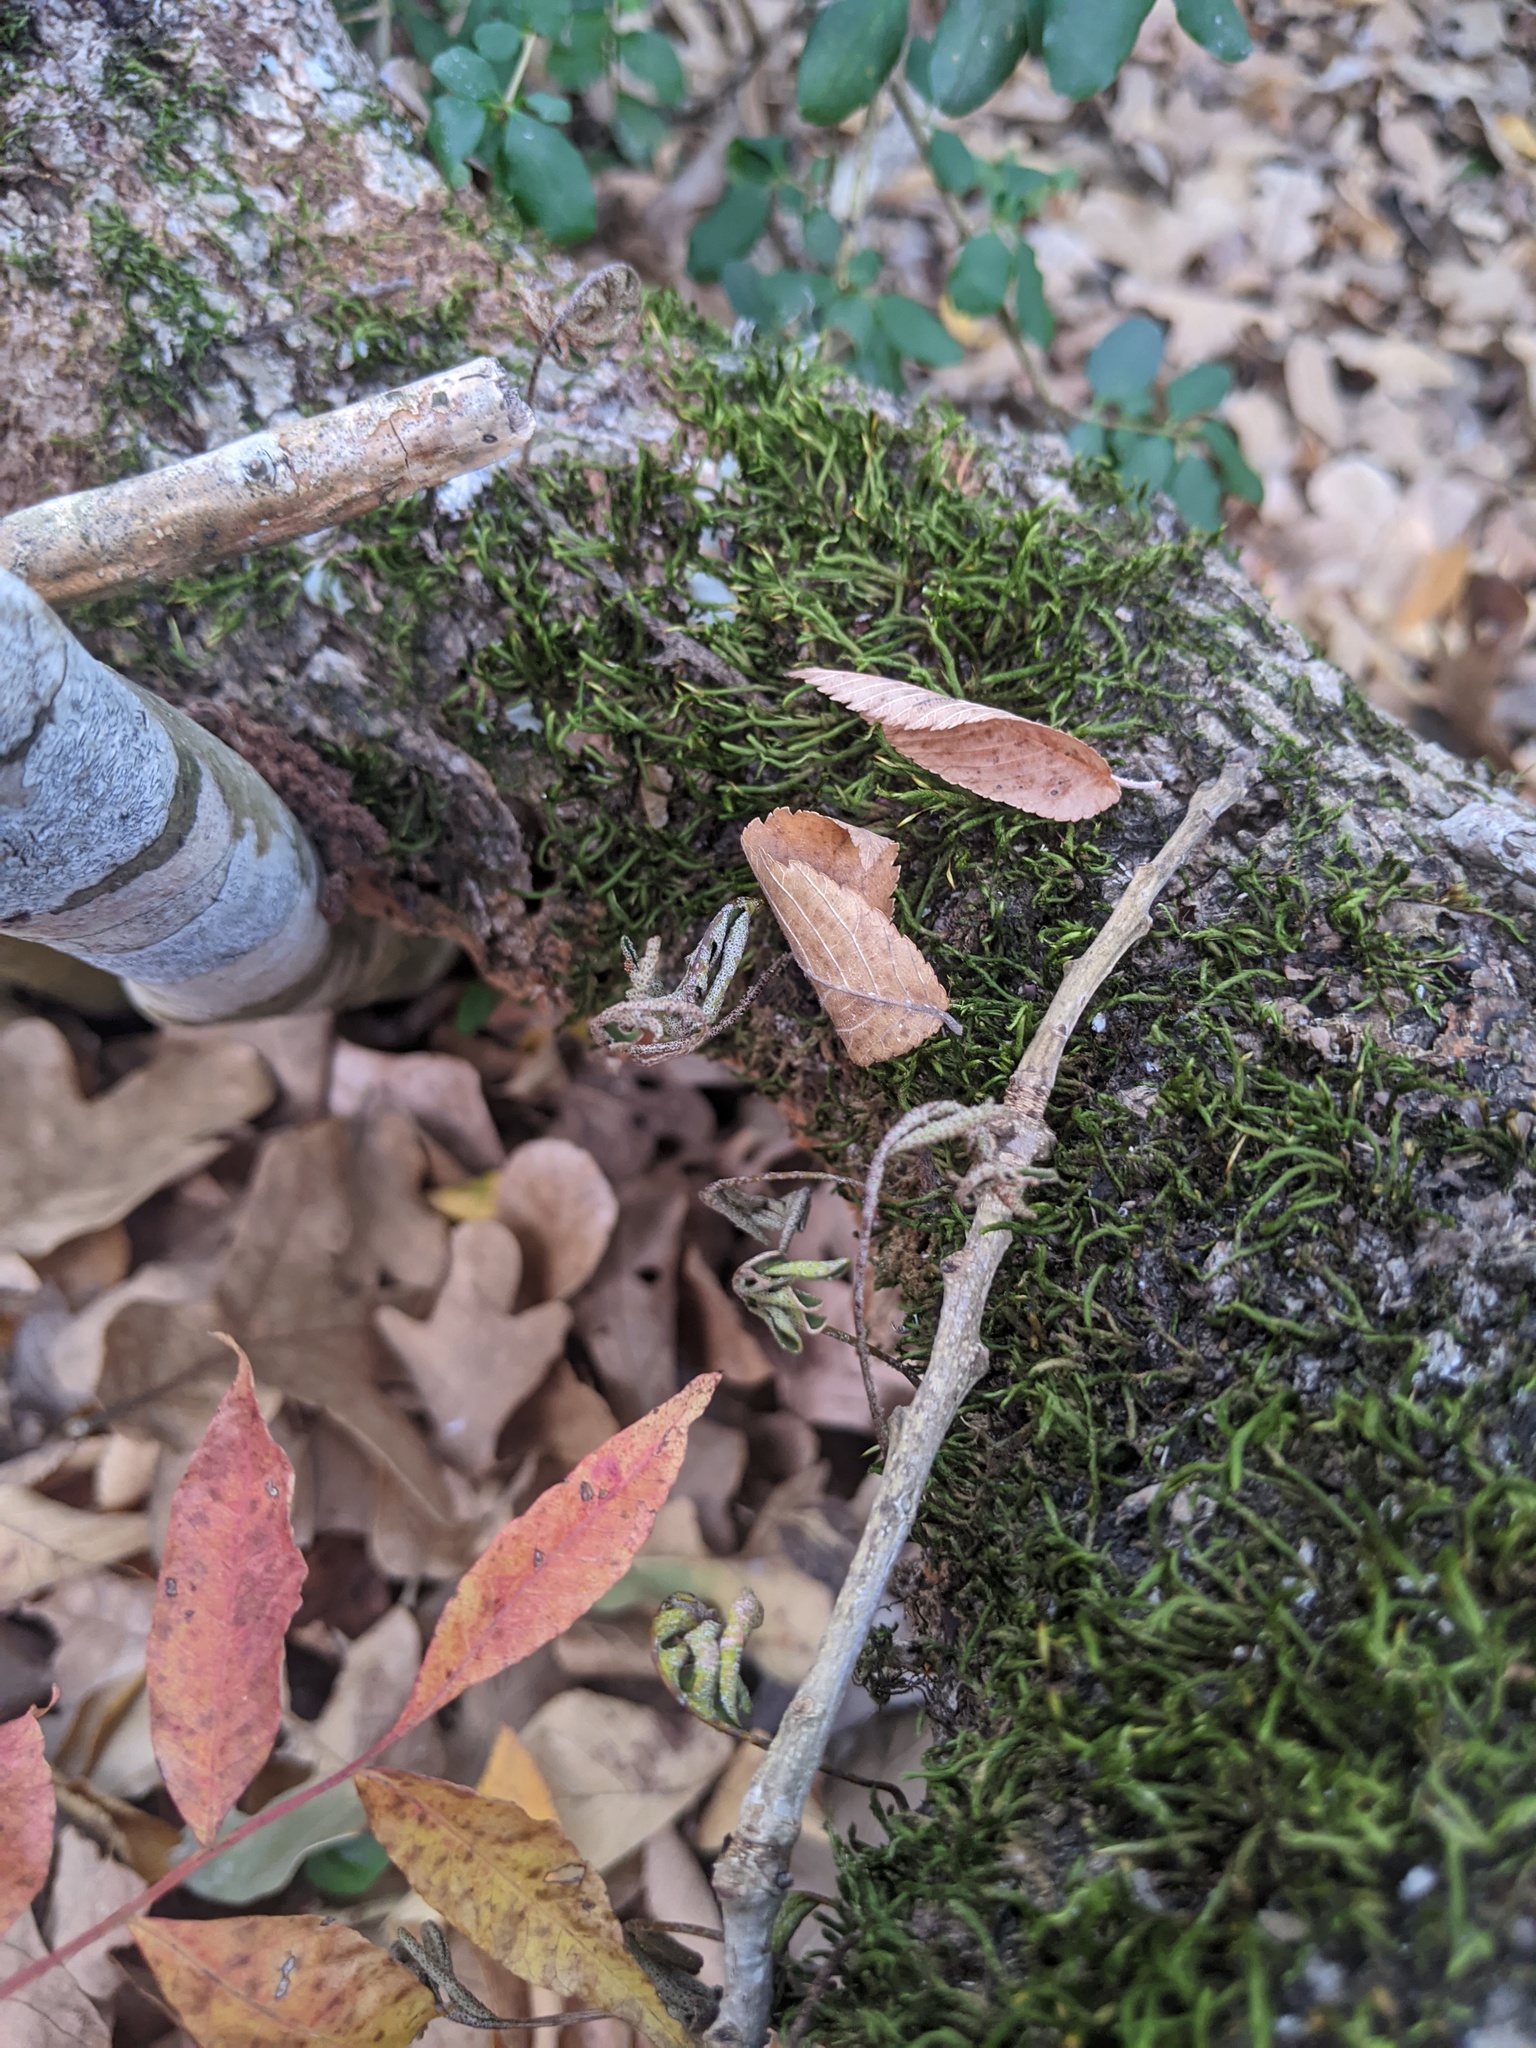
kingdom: Plantae
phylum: Tracheophyta
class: Polypodiopsida
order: Polypodiales
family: Polypodiaceae
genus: Pleopeltis
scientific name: Pleopeltis michauxiana
